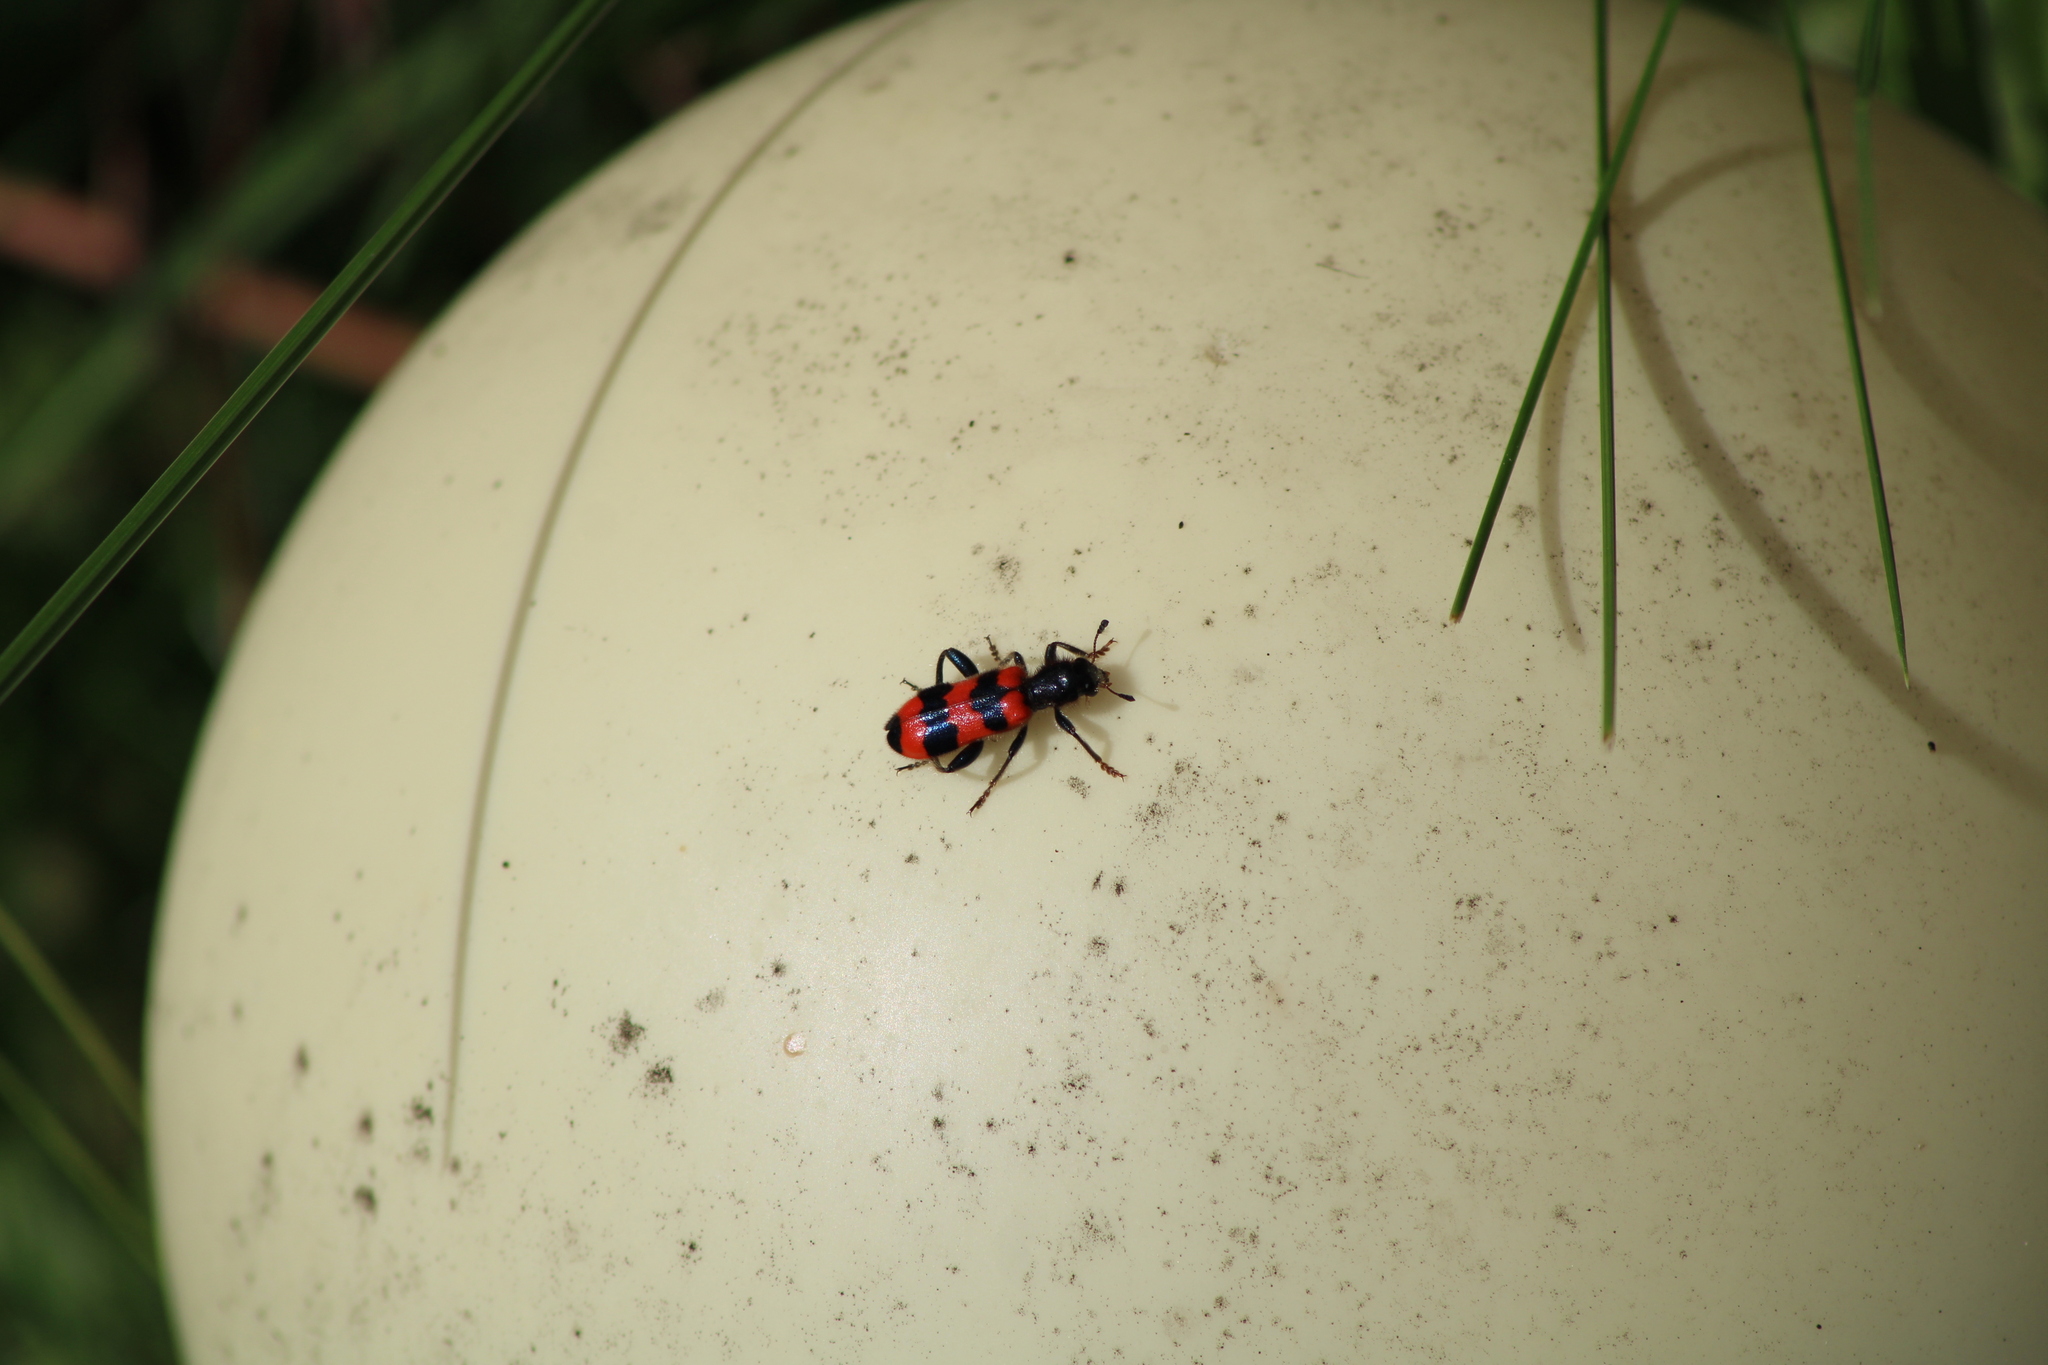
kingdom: Animalia
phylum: Arthropoda
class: Insecta
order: Coleoptera
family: Cleridae
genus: Trichodes
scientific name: Trichodes apiarius
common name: Bee-eating beetle
